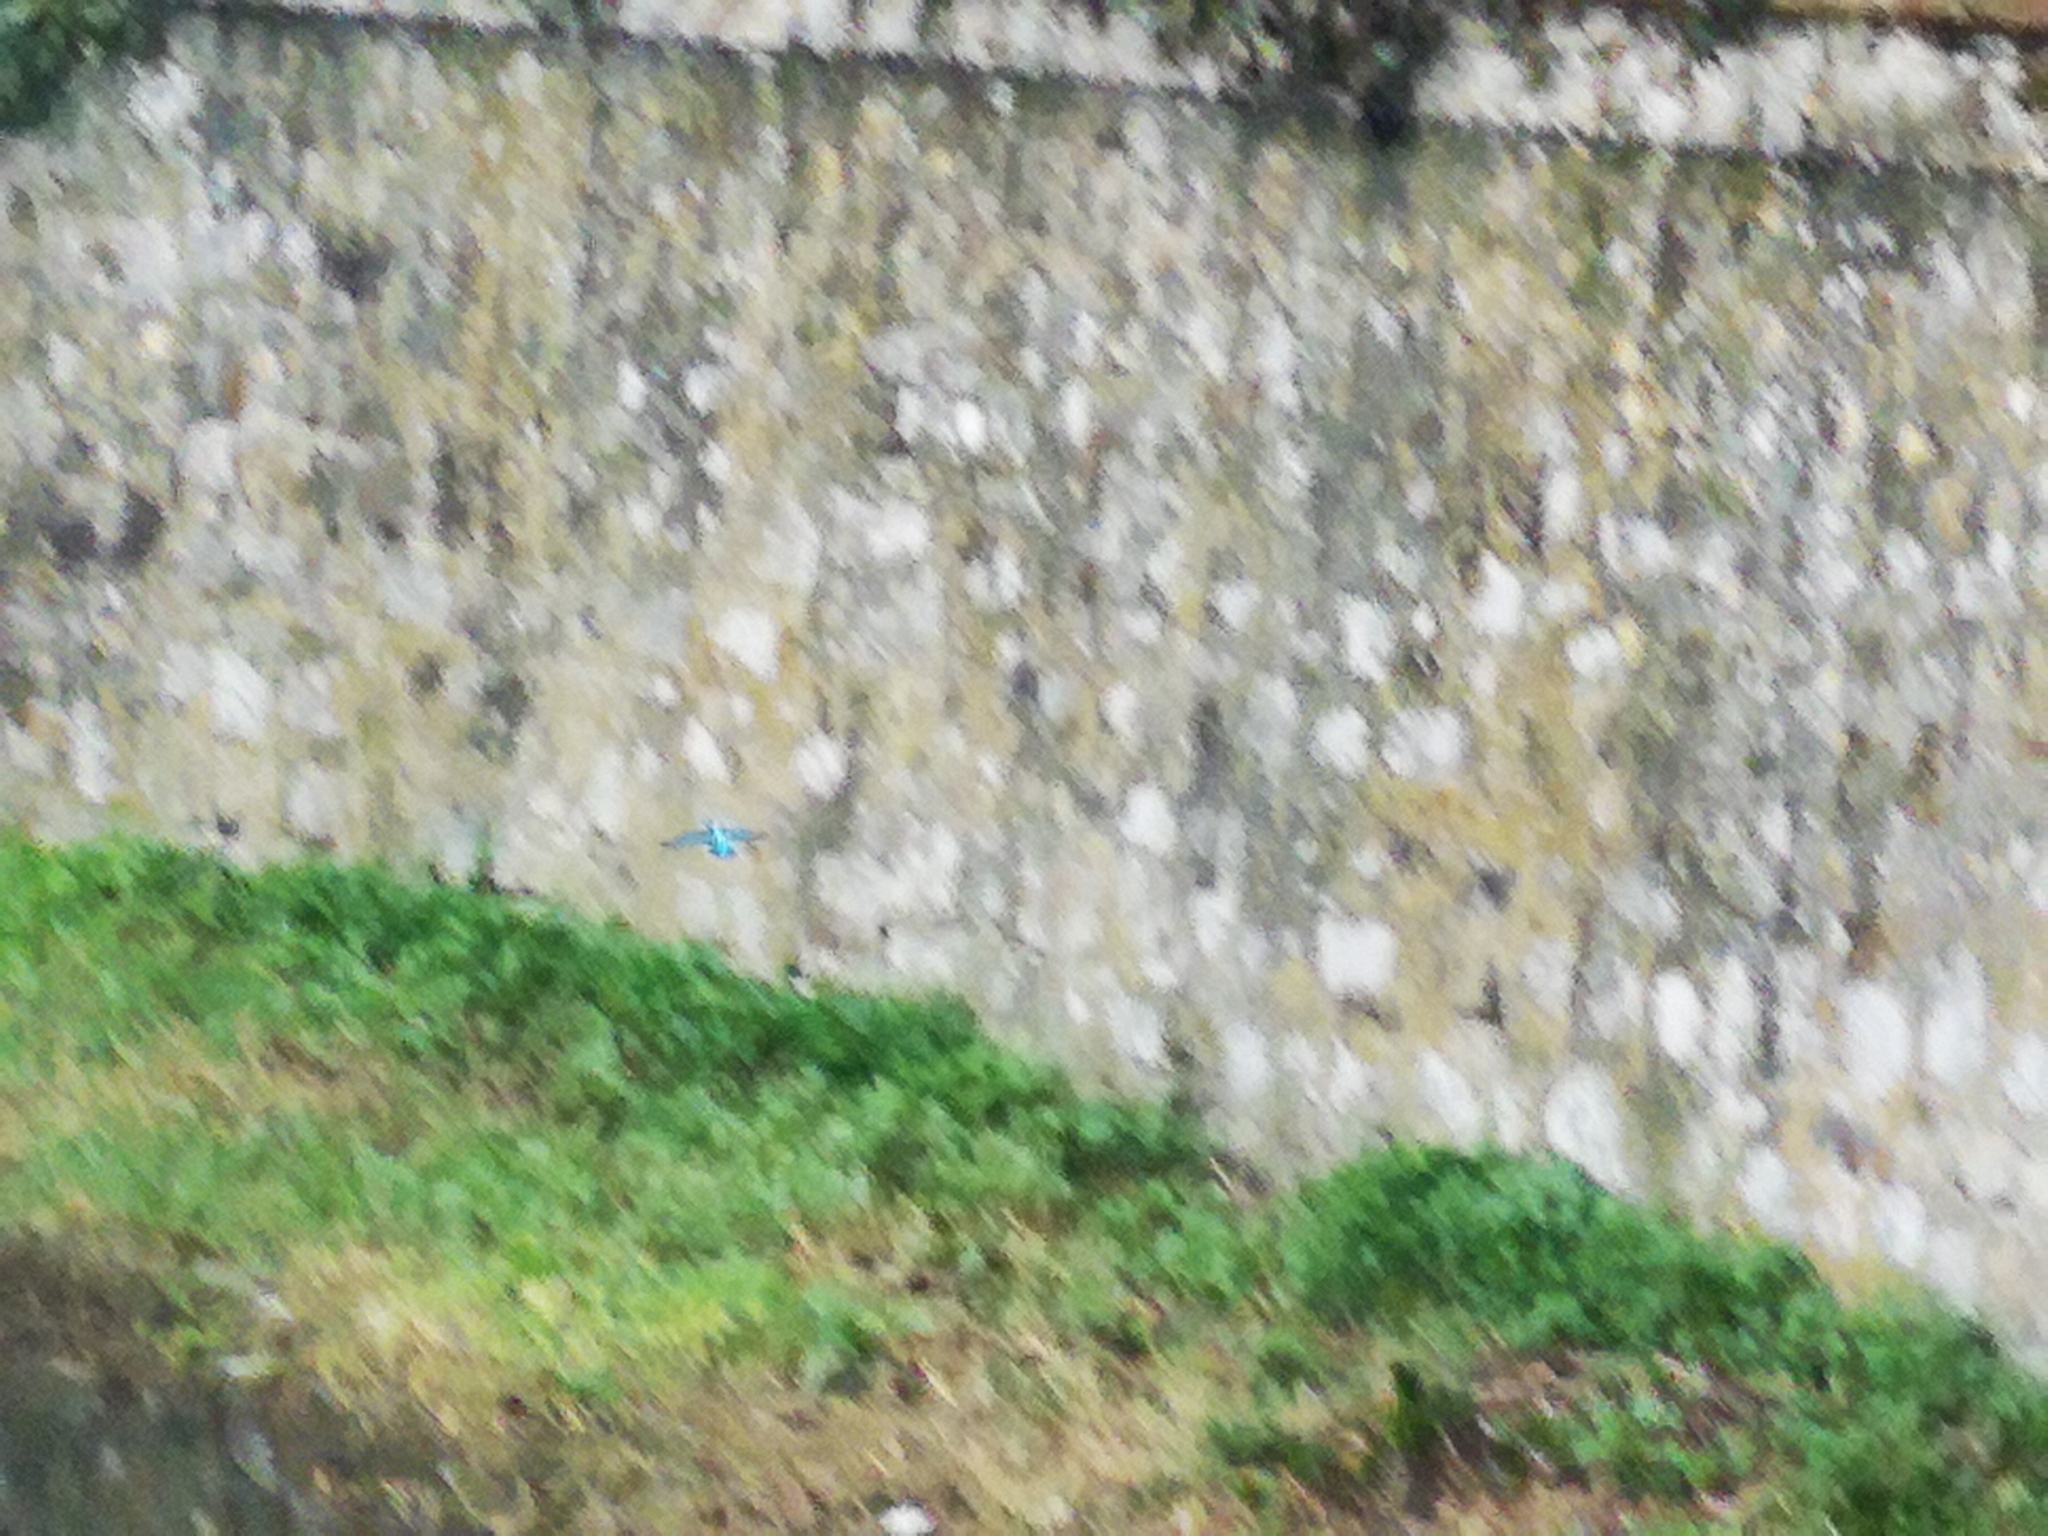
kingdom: Animalia
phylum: Chordata
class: Aves
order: Coraciiformes
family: Alcedinidae
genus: Alcedo
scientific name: Alcedo atthis
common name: Common kingfisher
